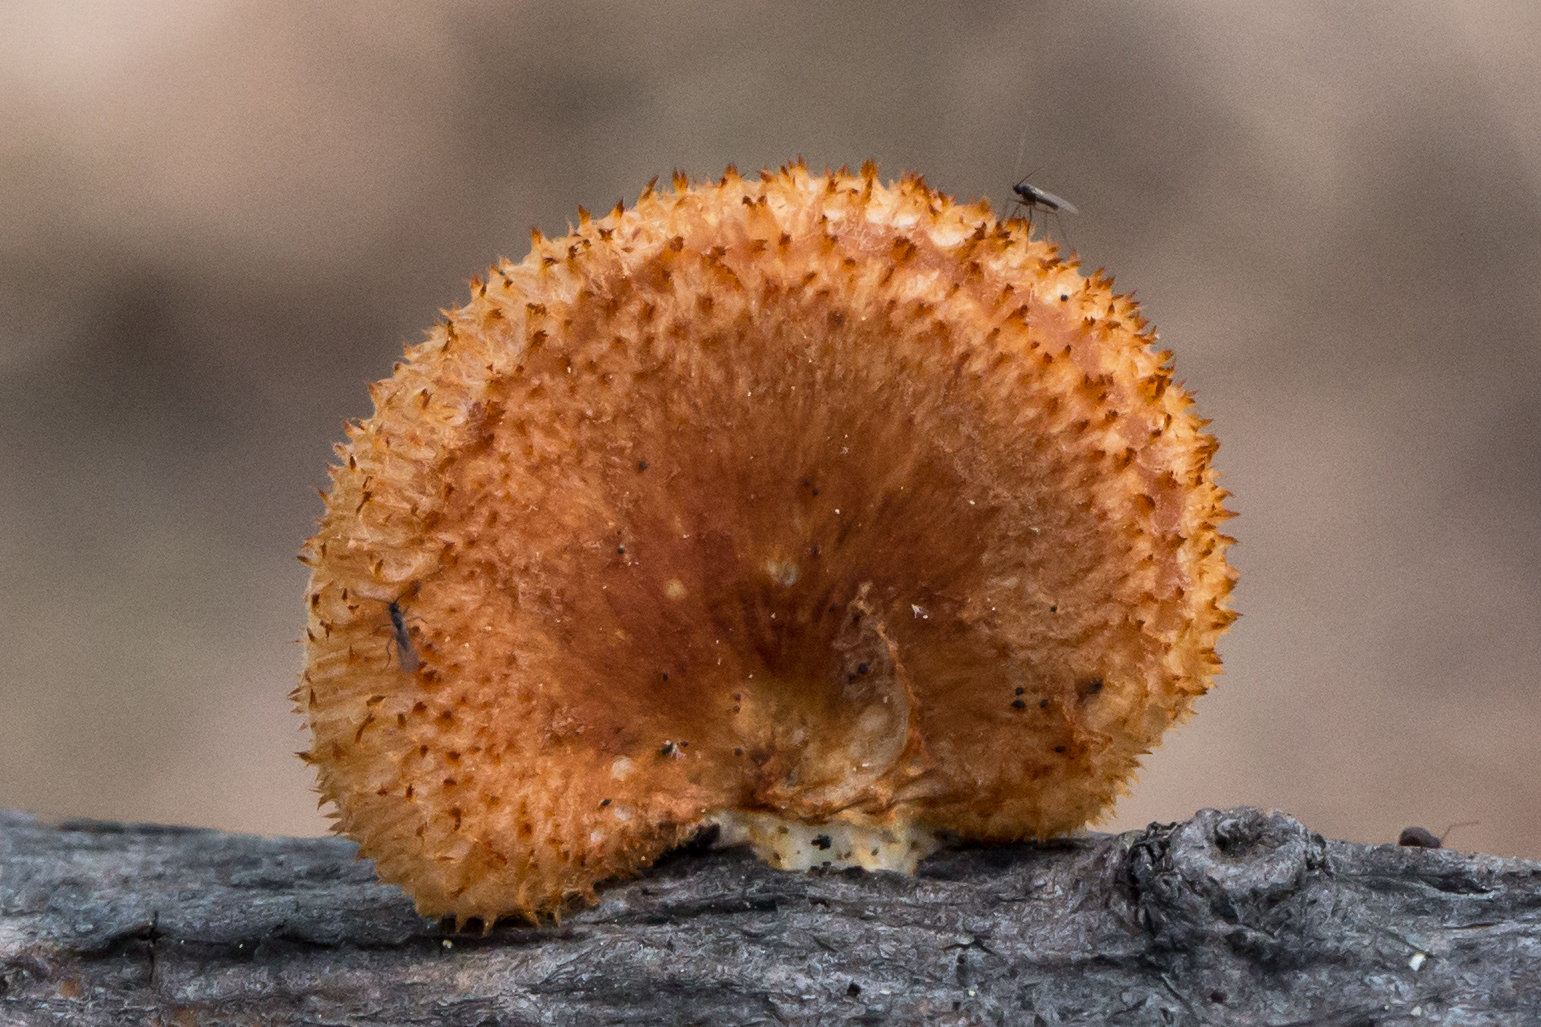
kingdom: Fungi
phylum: Basidiomycota
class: Agaricomycetes
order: Polyporales
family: Polyporaceae
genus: Neofavolus
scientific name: Neofavolus alveolaris
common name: Hexagonal-pored polypore
